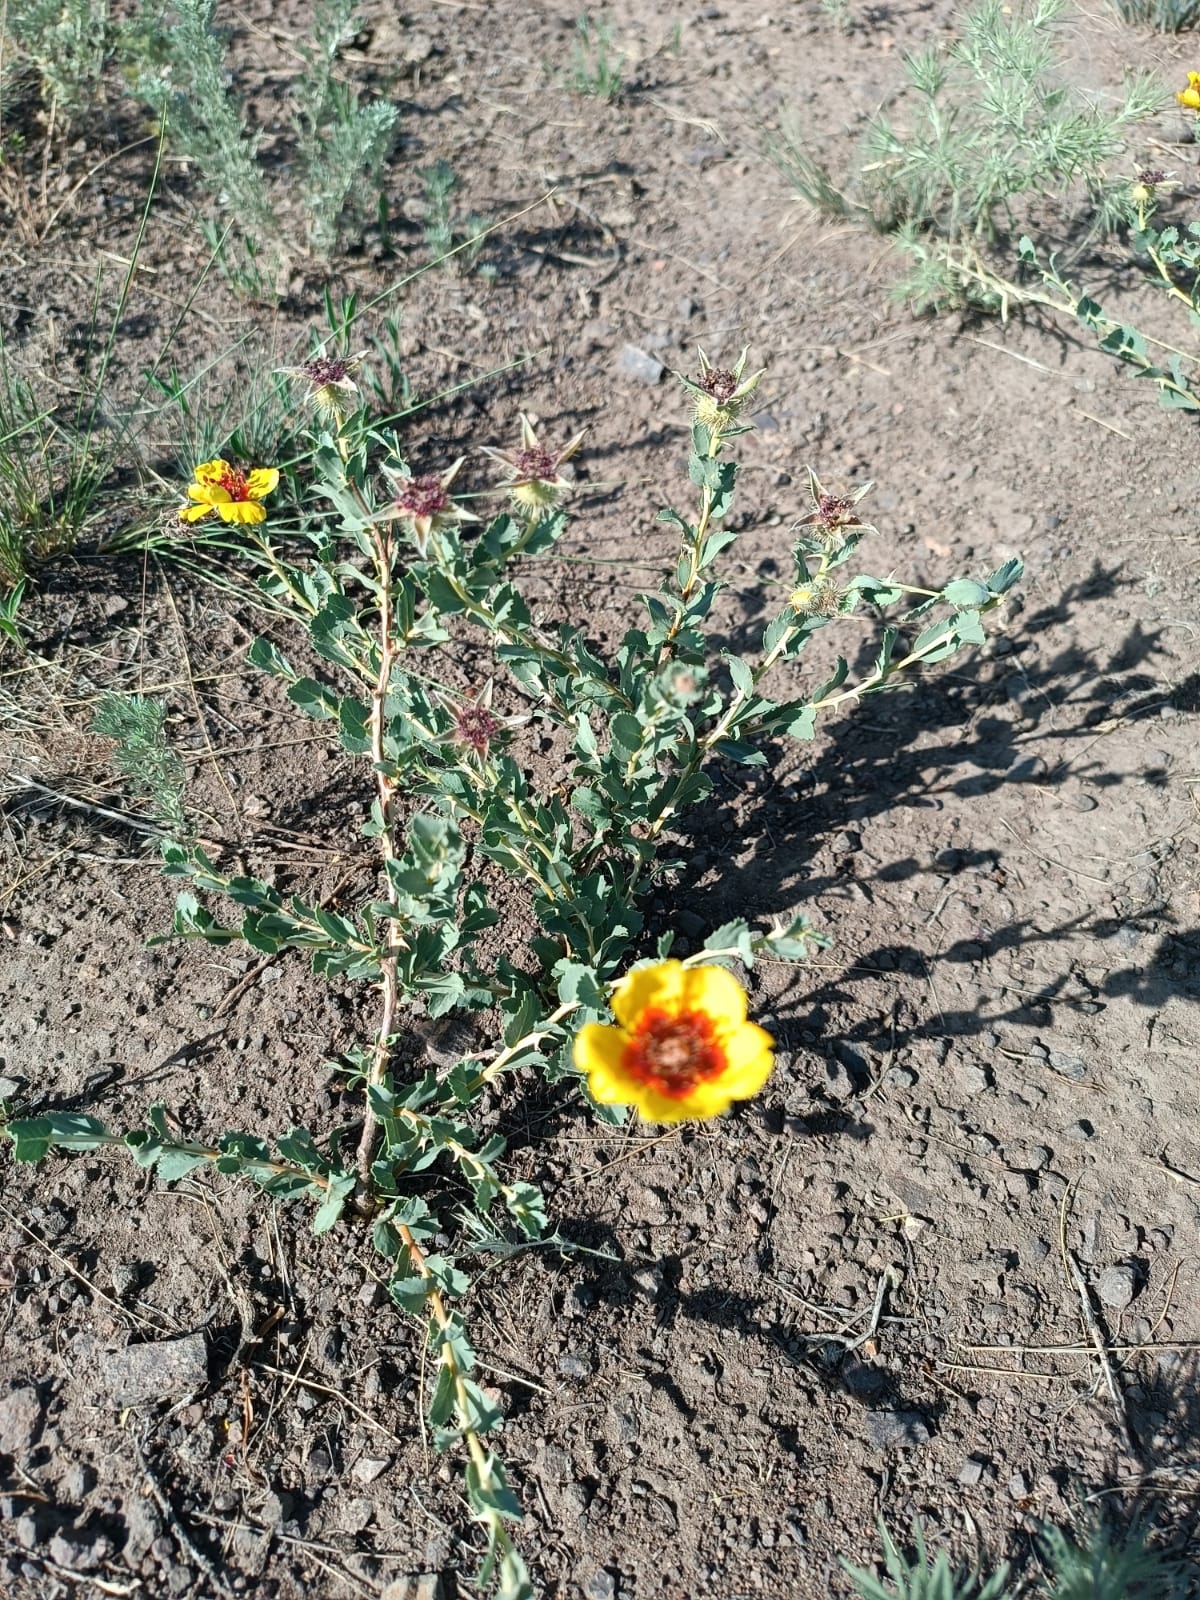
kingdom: Plantae
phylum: Tracheophyta
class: Magnoliopsida
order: Rosales
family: Rosaceae
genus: Rosa
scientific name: Rosa persica
